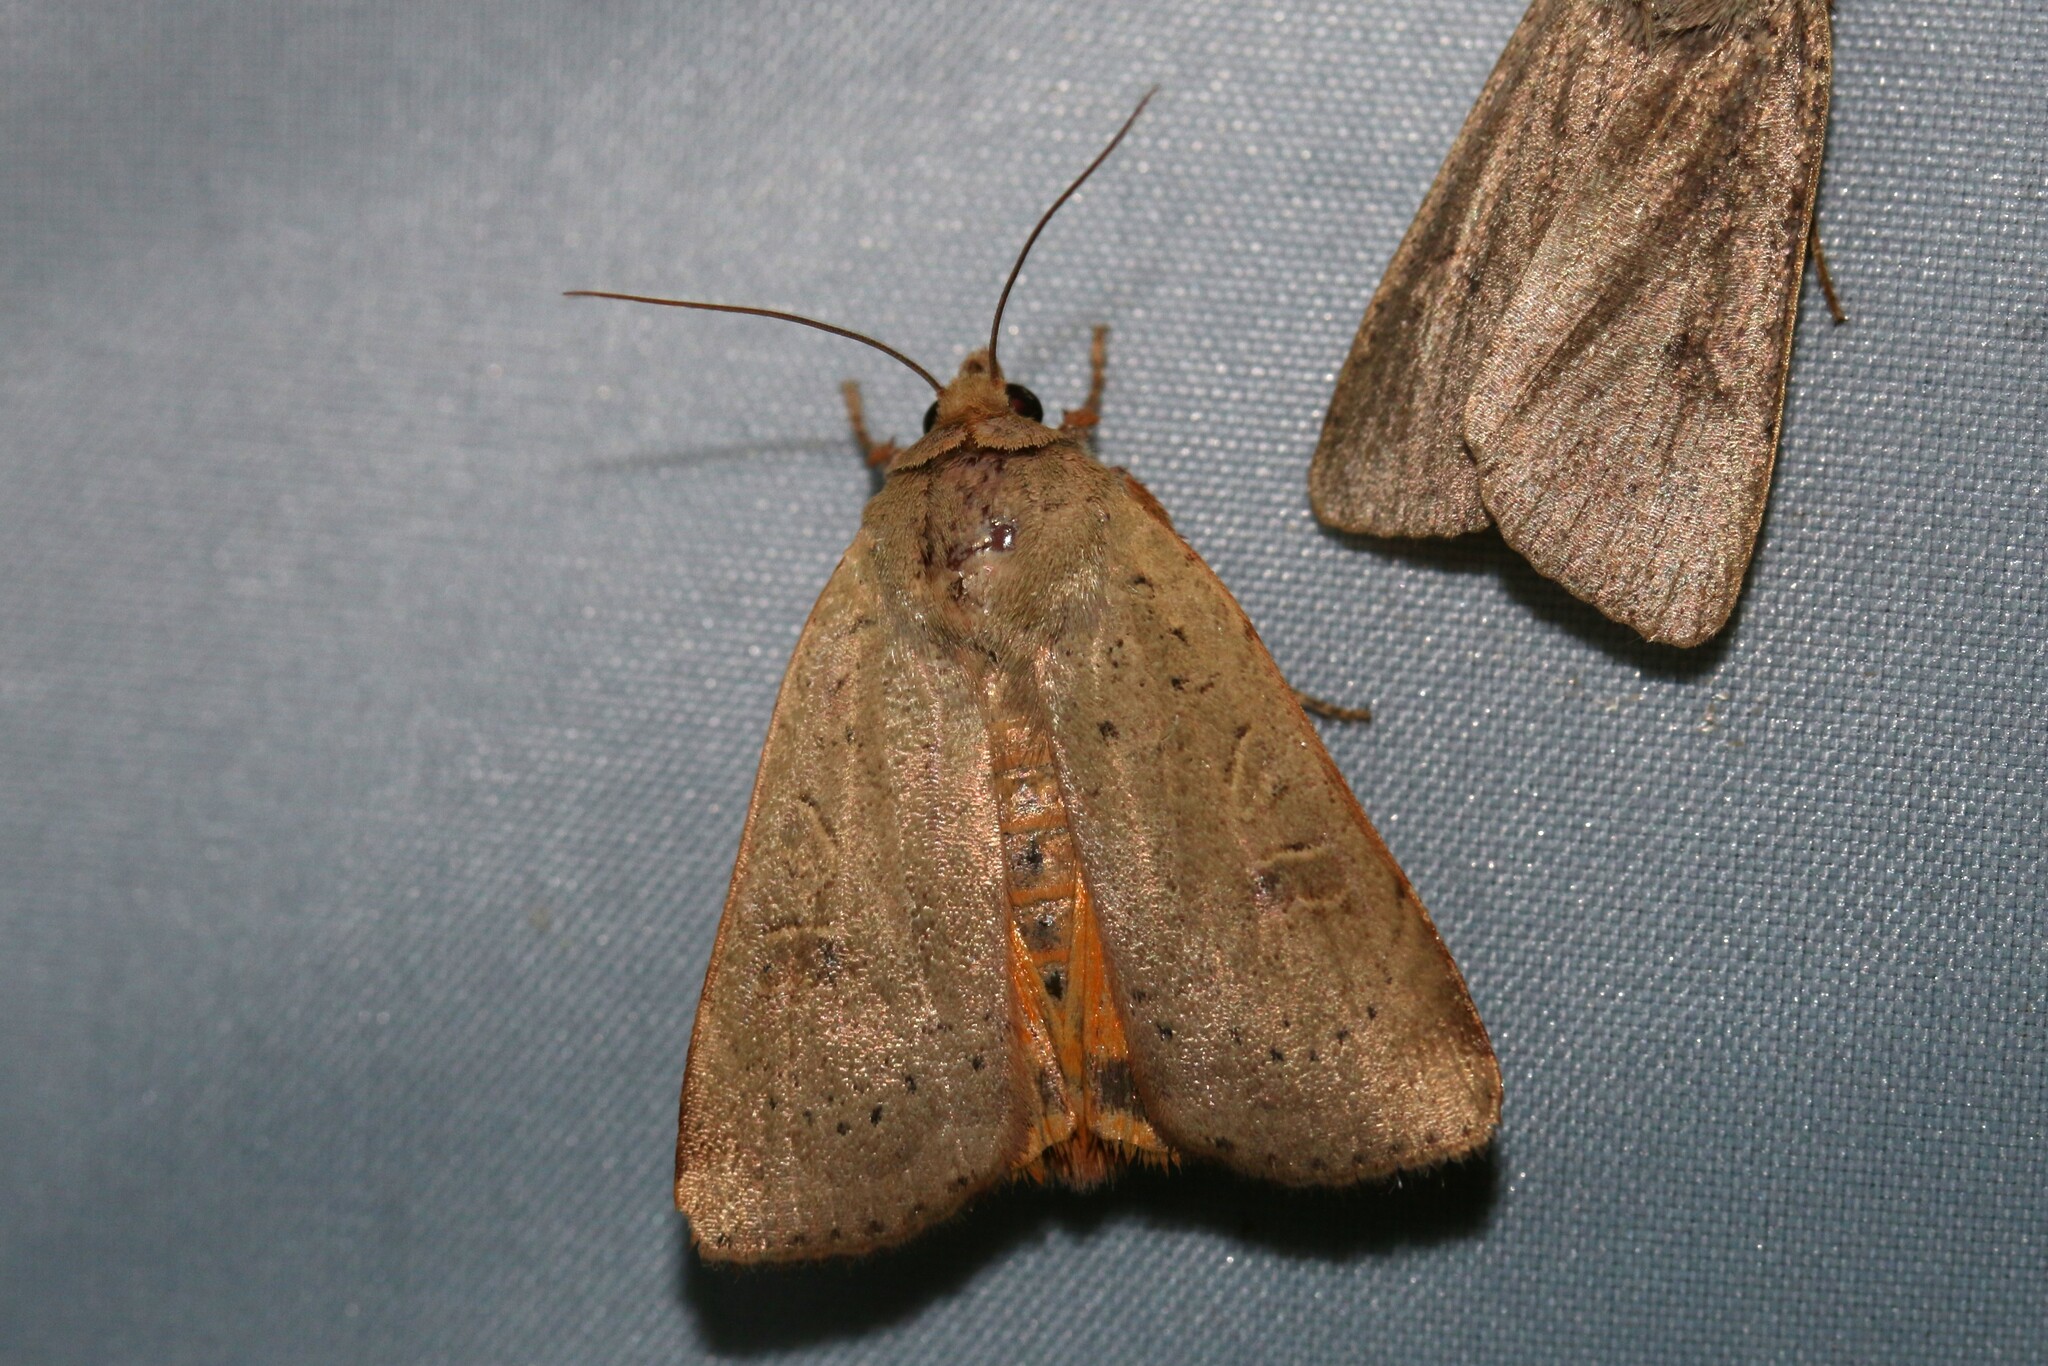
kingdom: Animalia
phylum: Arthropoda
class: Insecta
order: Lepidoptera
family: Noctuidae
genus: Noctua
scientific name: Noctua comes
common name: Lesser yellow underwing
